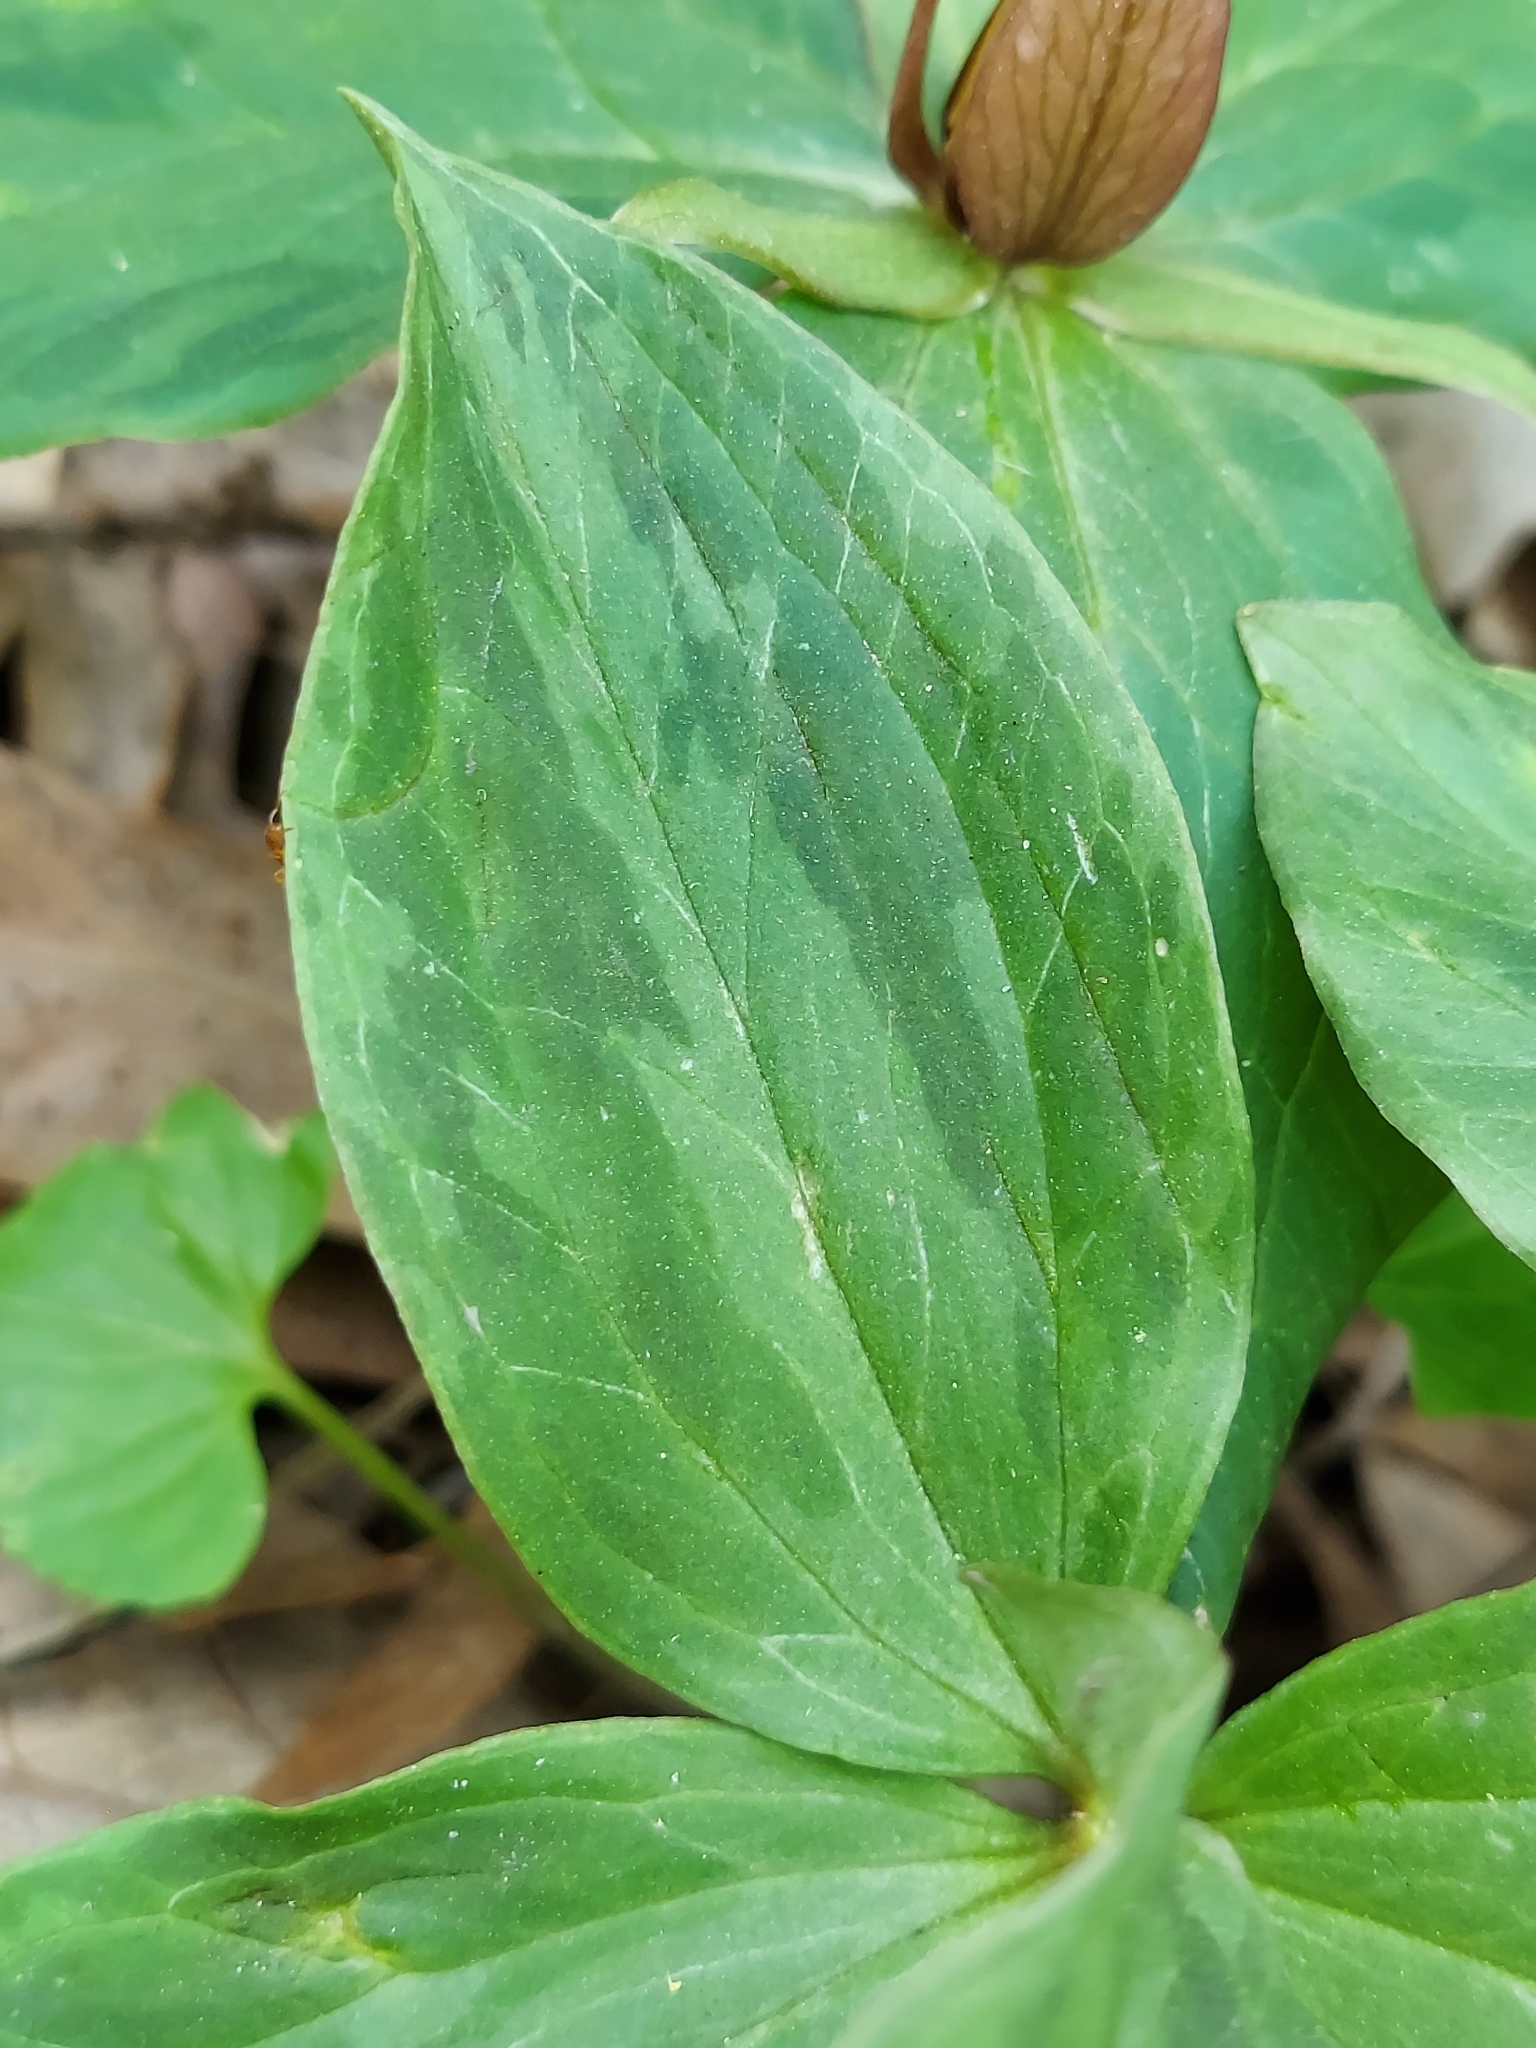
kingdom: Plantae
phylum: Tracheophyta
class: Liliopsida
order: Liliales
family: Melanthiaceae
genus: Trillium
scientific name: Trillium sessile
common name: Sessile trillium
